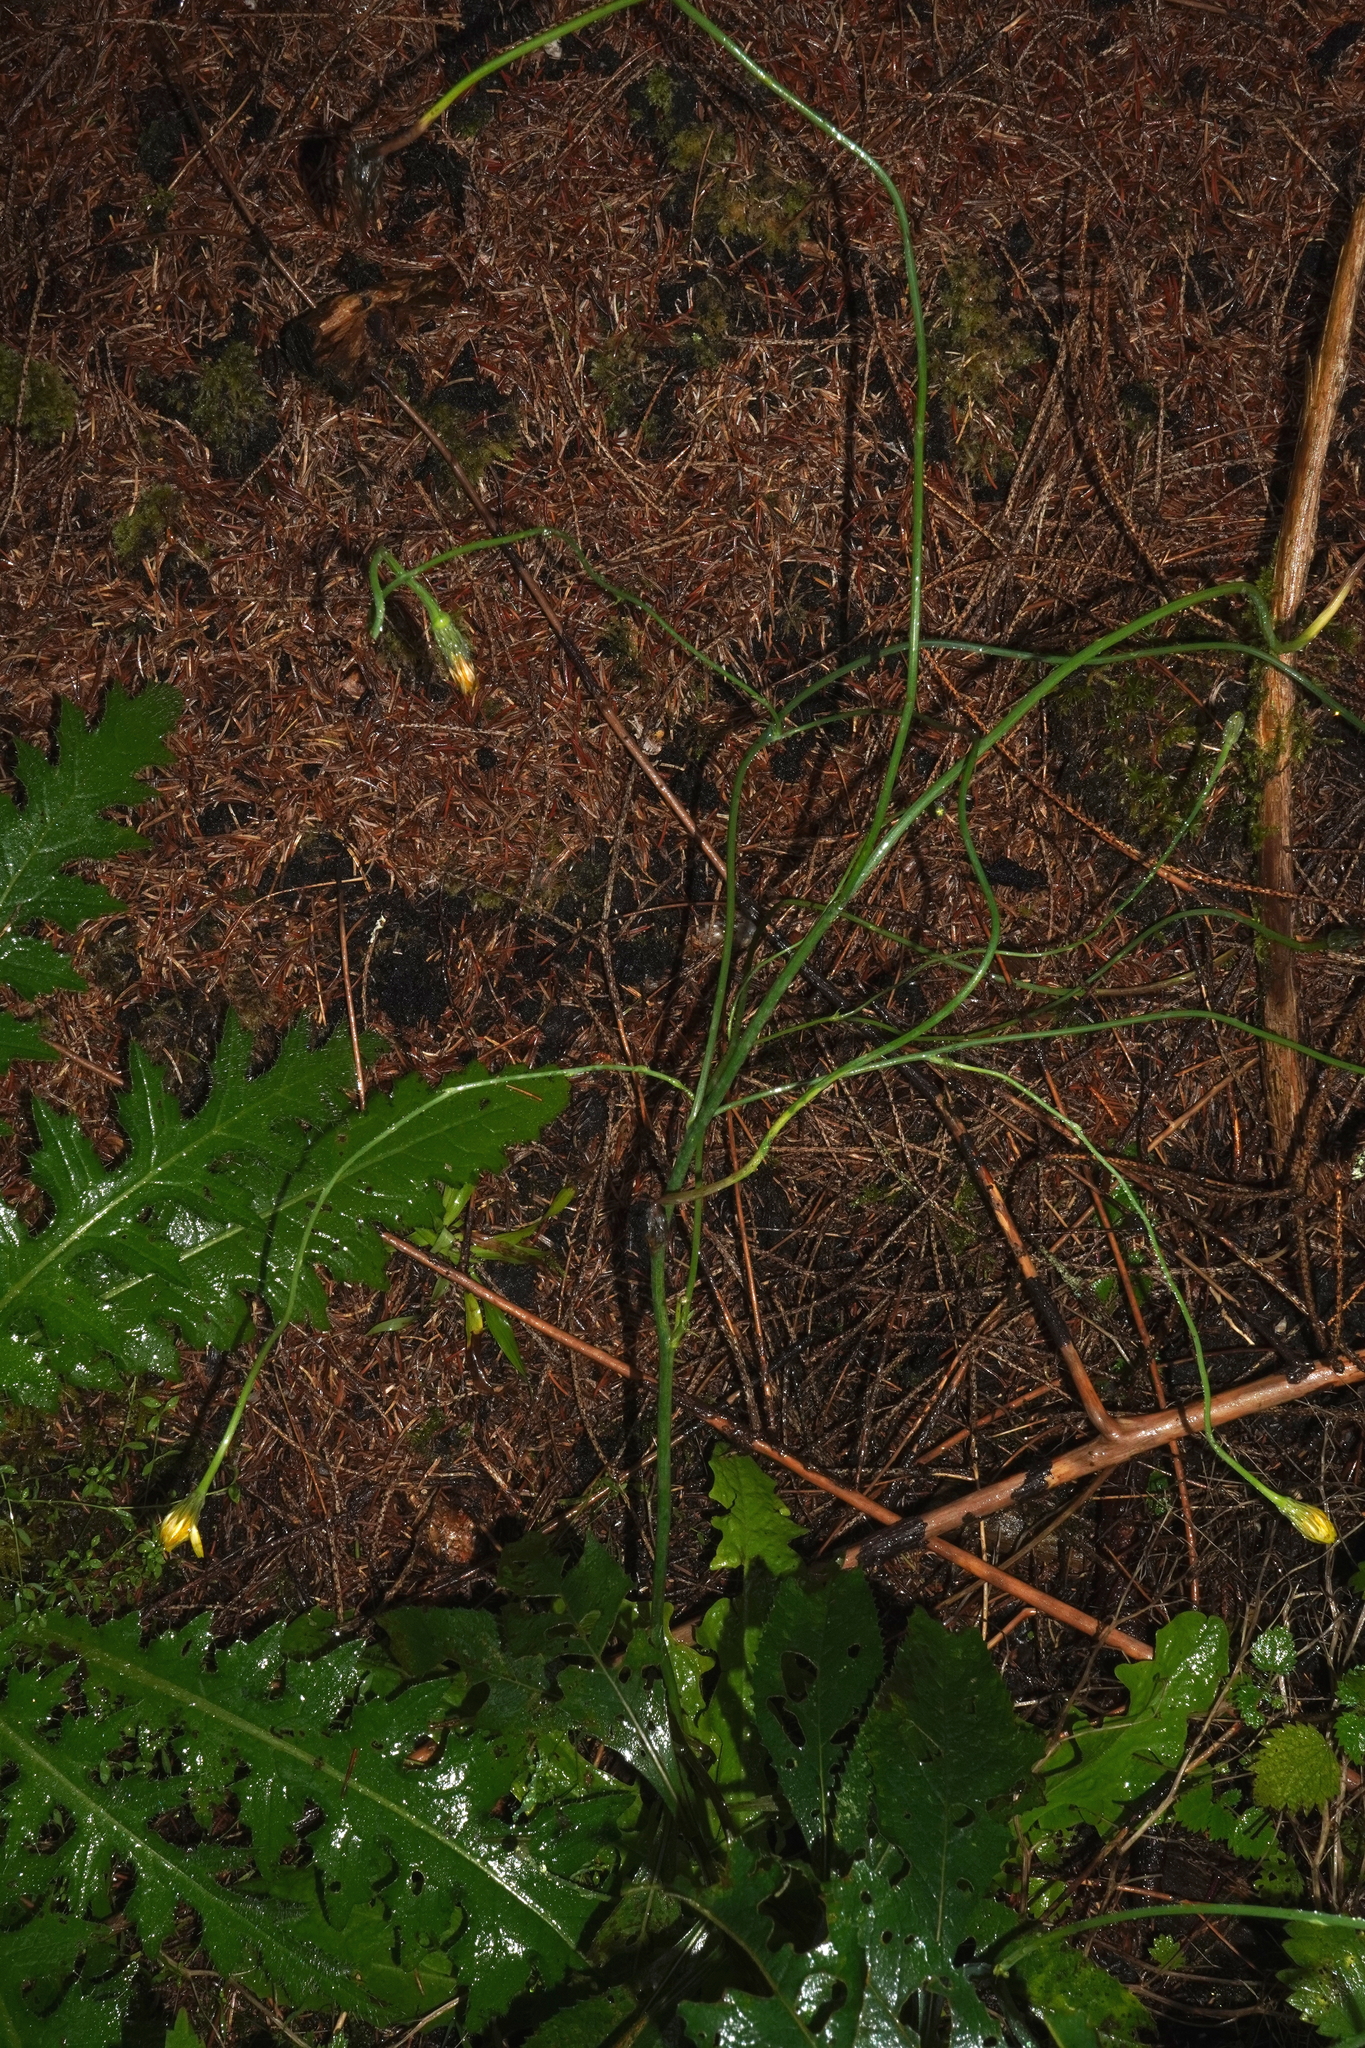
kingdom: Plantae
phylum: Tracheophyta
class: Magnoliopsida
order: Asterales
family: Asteraceae
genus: Hypochaeris
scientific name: Hypochaeris radicata
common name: Flatweed
